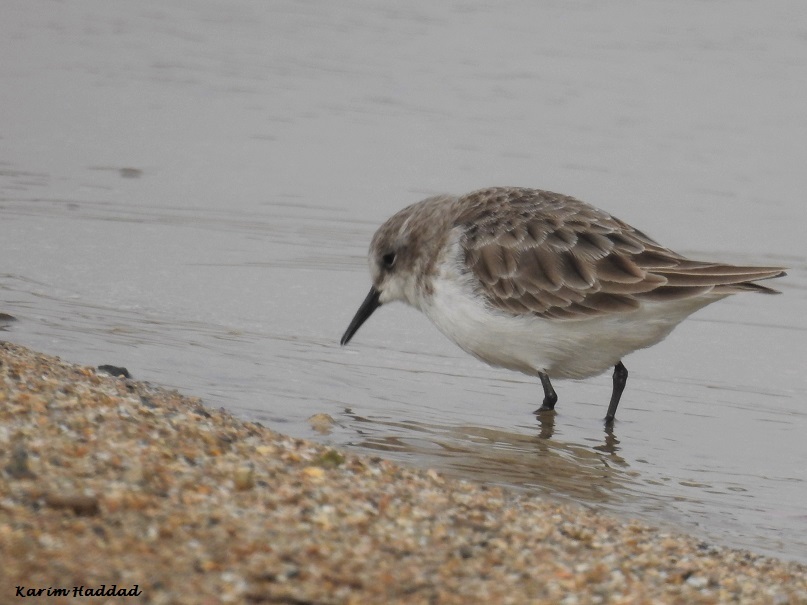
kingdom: Animalia
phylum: Chordata
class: Aves
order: Charadriiformes
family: Scolopacidae
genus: Calidris
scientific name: Calidris minuta
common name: Little stint
